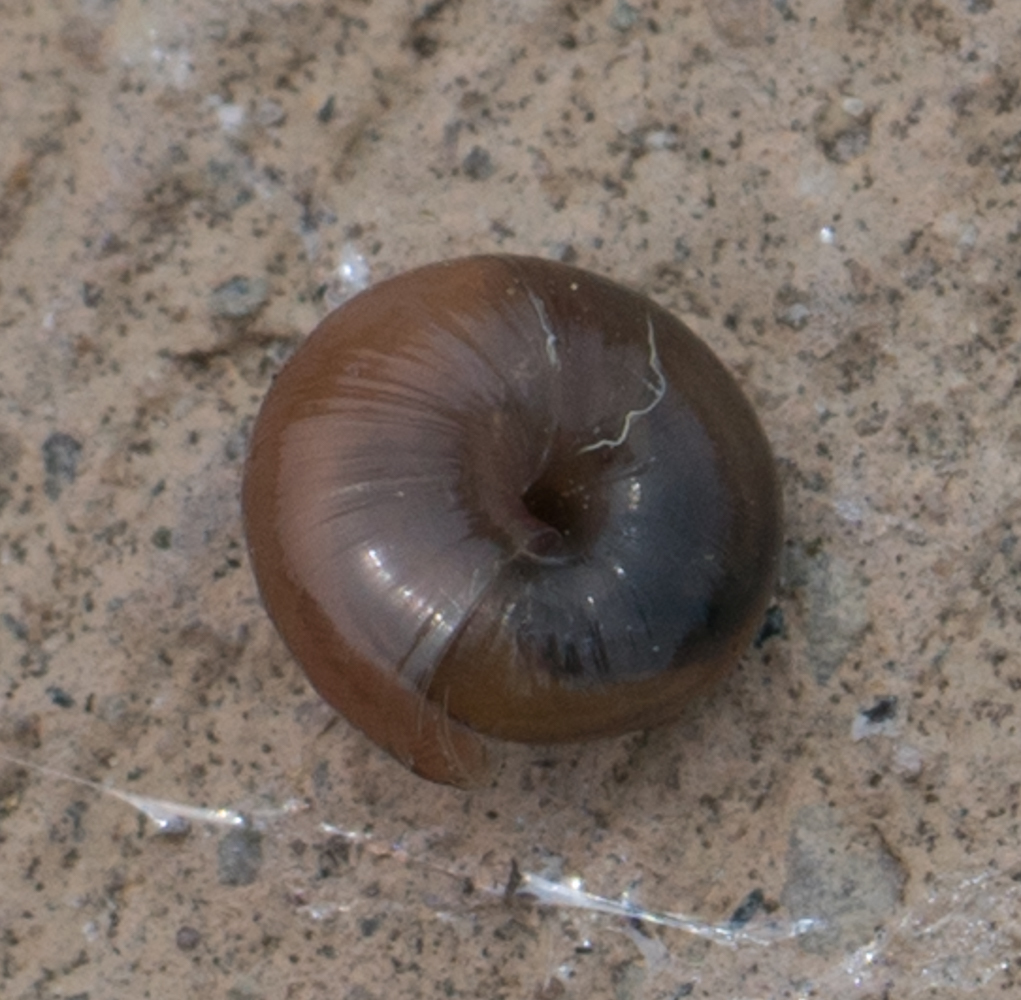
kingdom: Animalia
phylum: Mollusca
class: Gastropoda
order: Stylommatophora
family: Gastrodontidae
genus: Zonitoides
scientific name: Zonitoides arboreus
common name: Quick gloss
